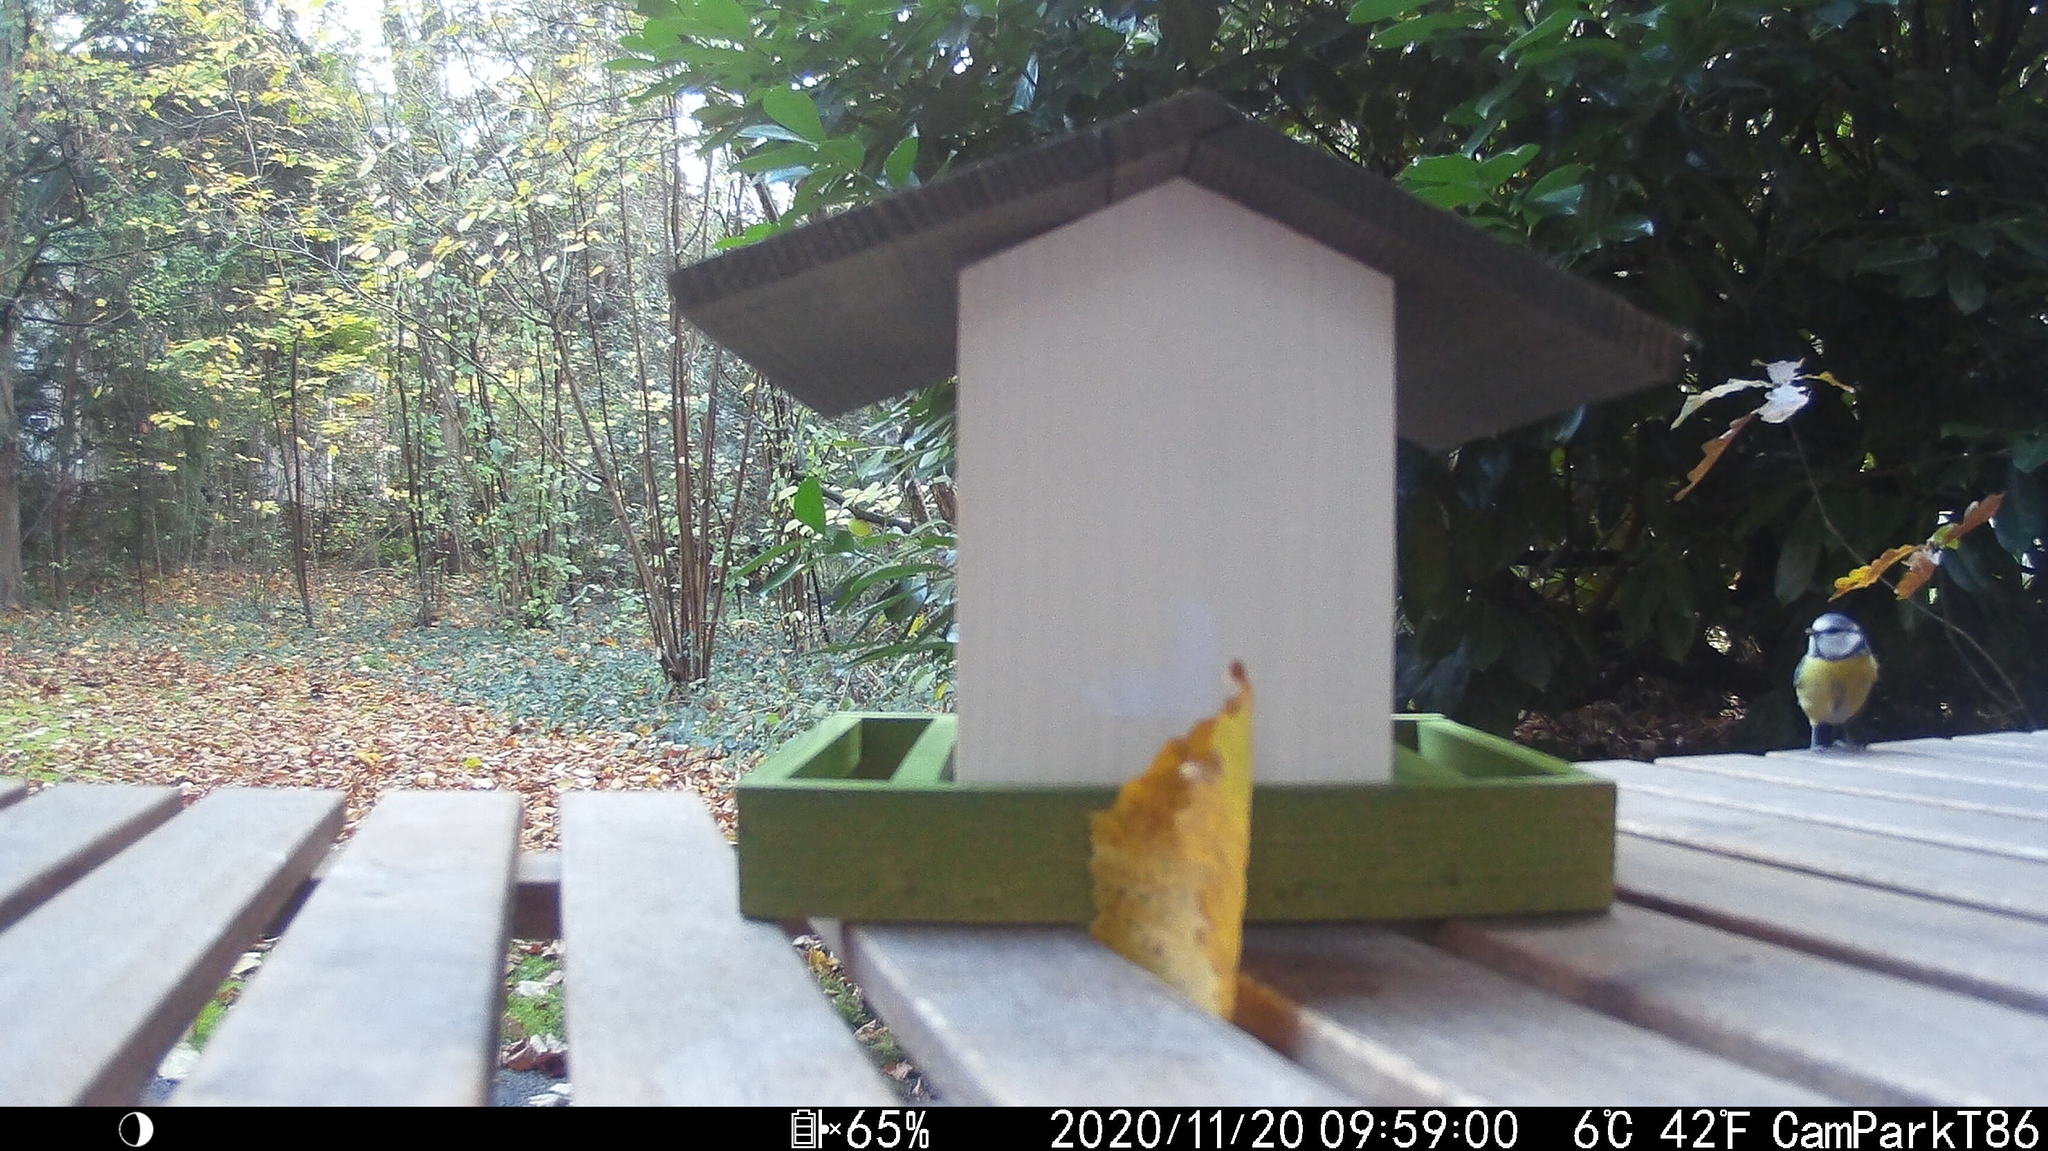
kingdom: Animalia
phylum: Chordata
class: Aves
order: Passeriformes
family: Paridae
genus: Cyanistes
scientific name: Cyanistes caeruleus
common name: Eurasian blue tit
